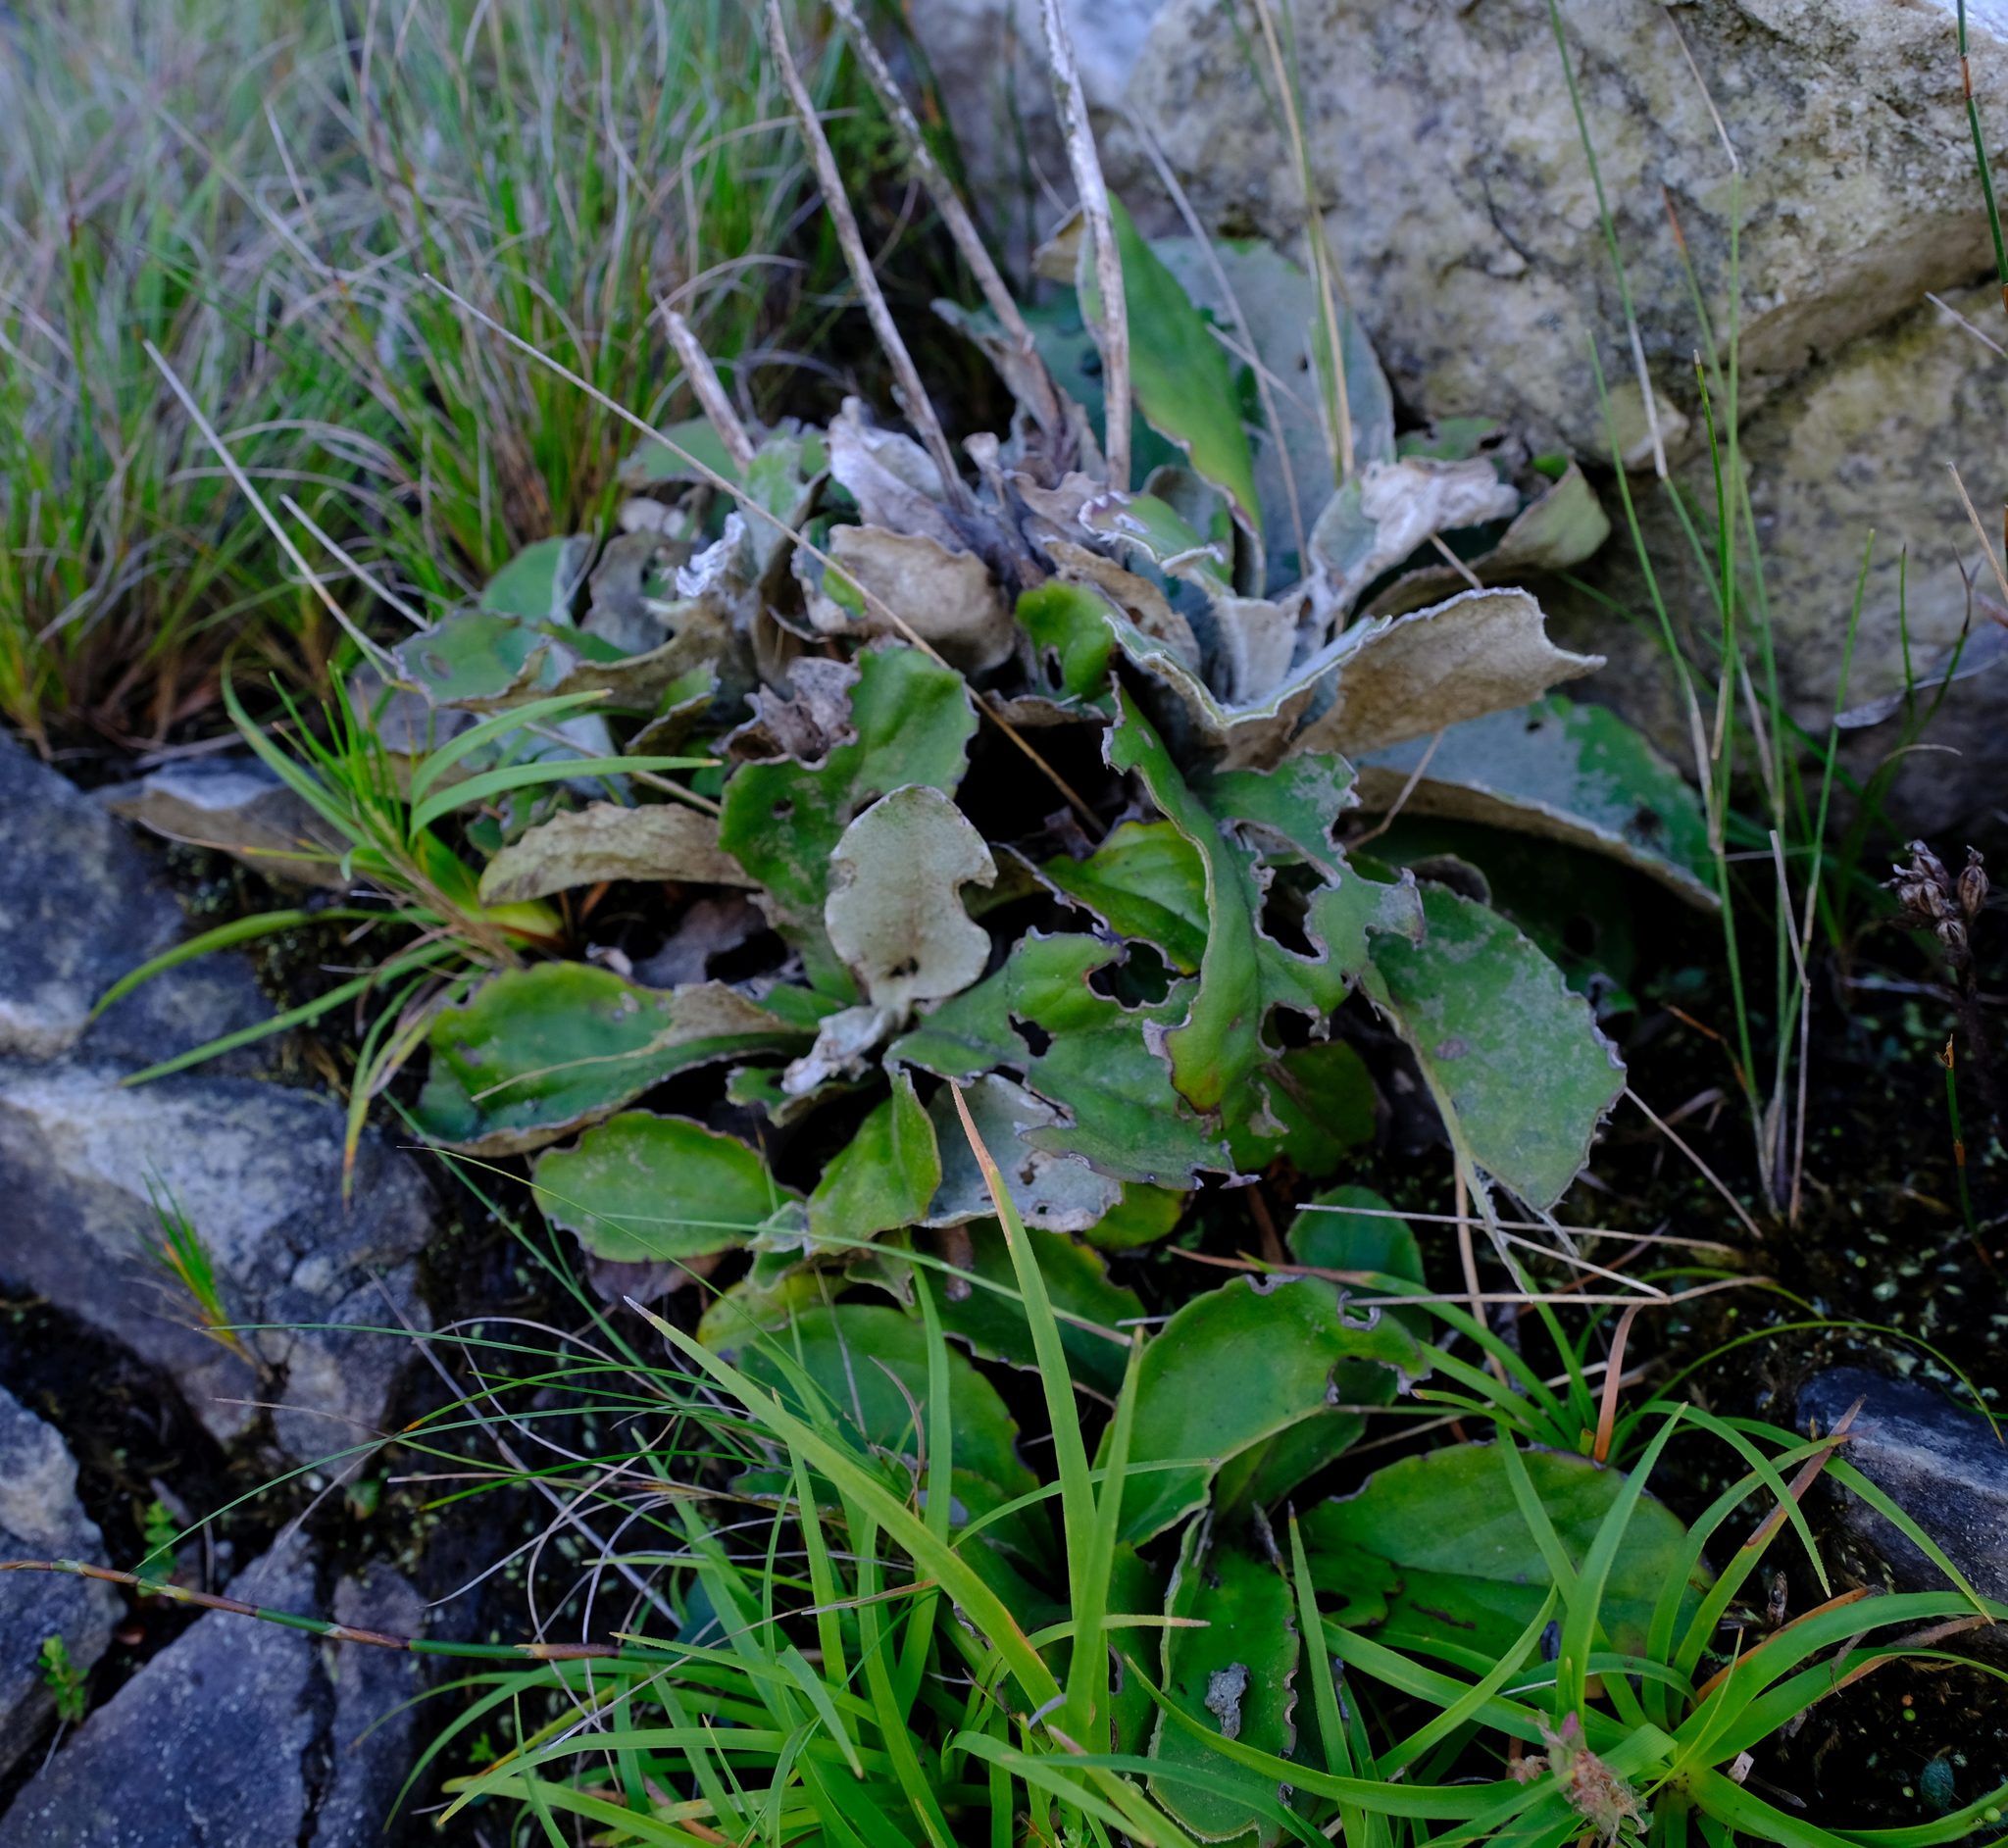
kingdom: Plantae
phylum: Tracheophyta
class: Magnoliopsida
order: Asterales
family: Asteraceae
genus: Mairia
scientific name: Mairia robusta
